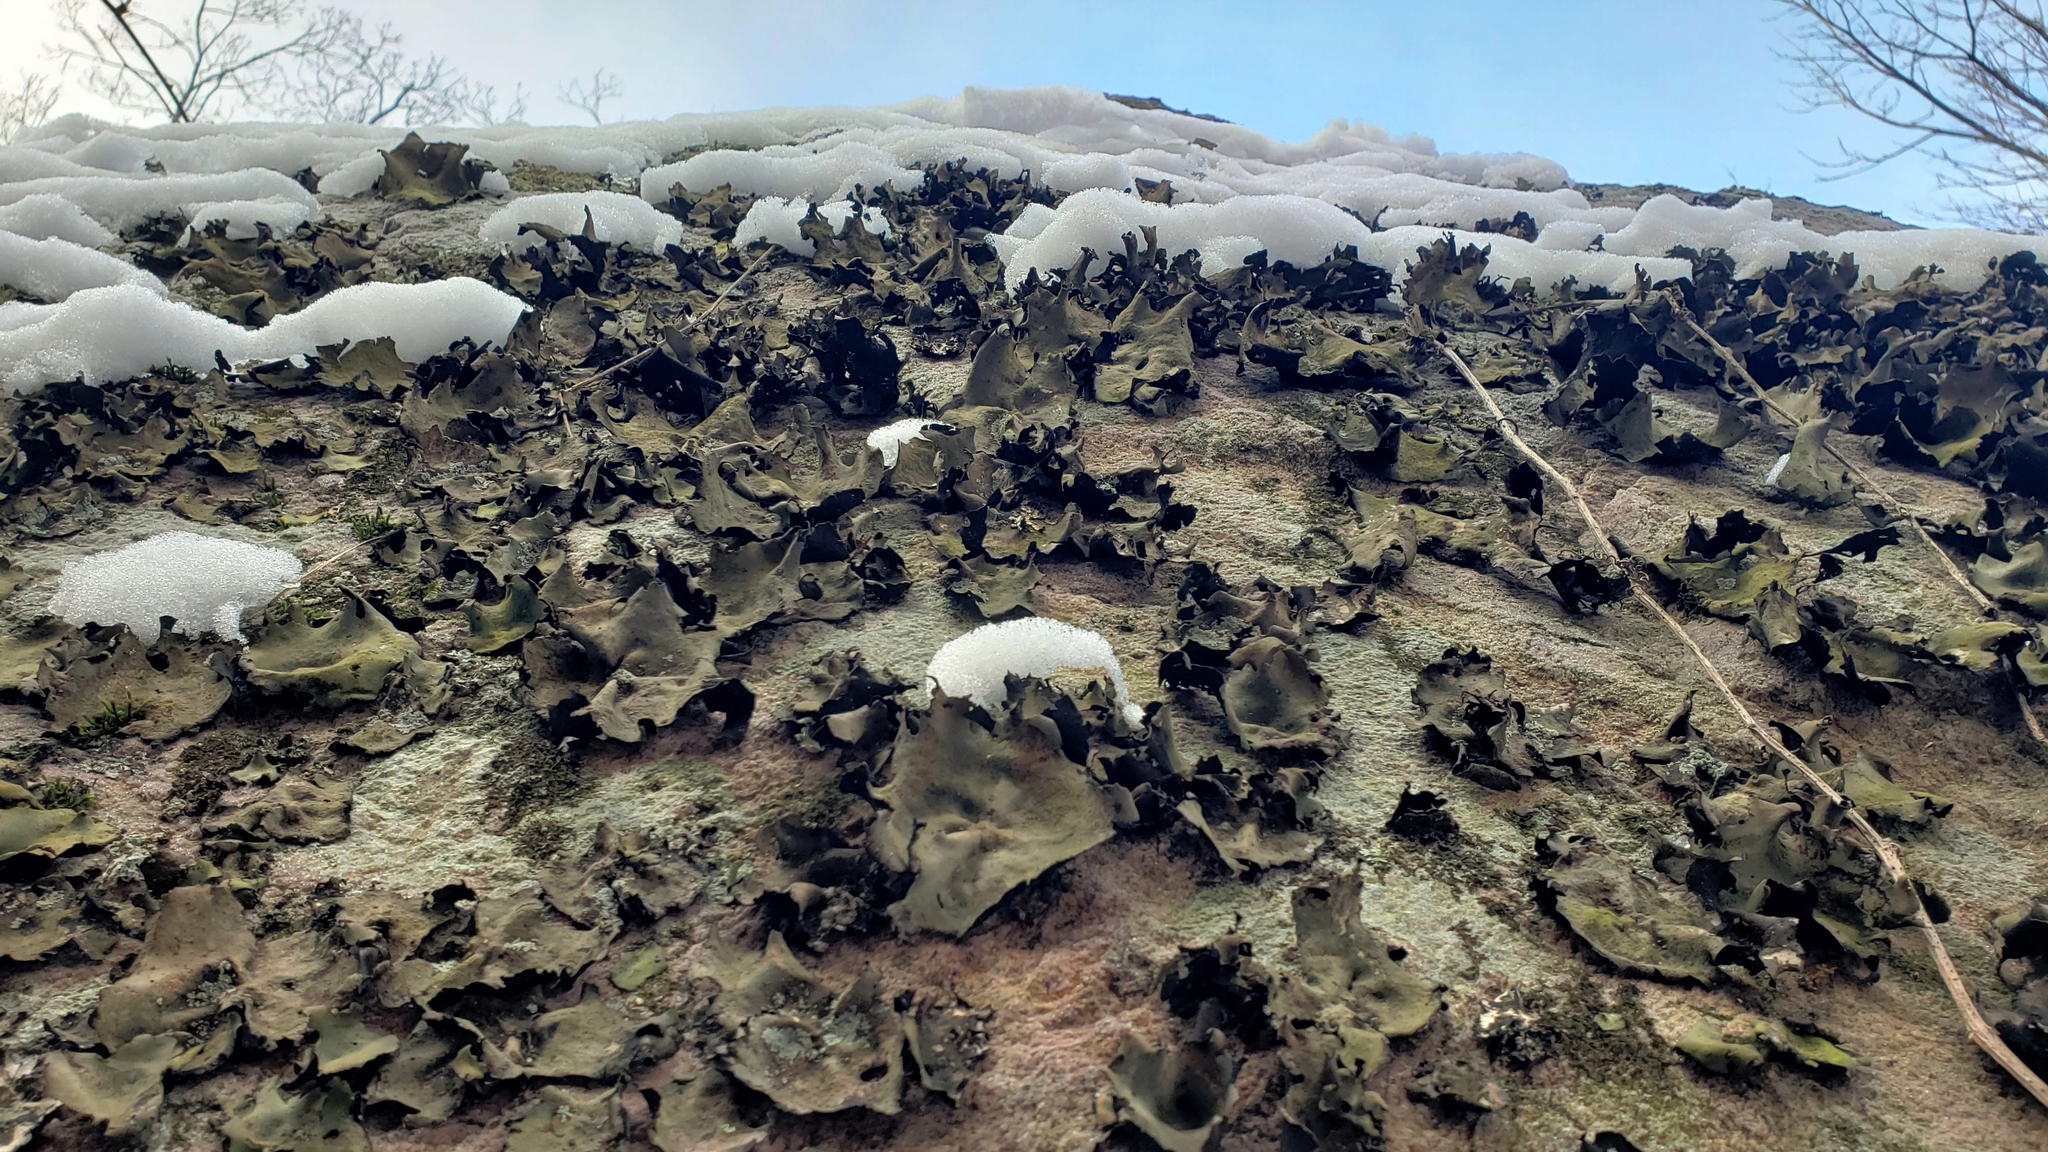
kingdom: Fungi
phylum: Ascomycota
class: Lecanoromycetes
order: Umbilicariales
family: Umbilicariaceae
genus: Umbilicaria
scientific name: Umbilicaria mammulata
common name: Smooth rock tripe
